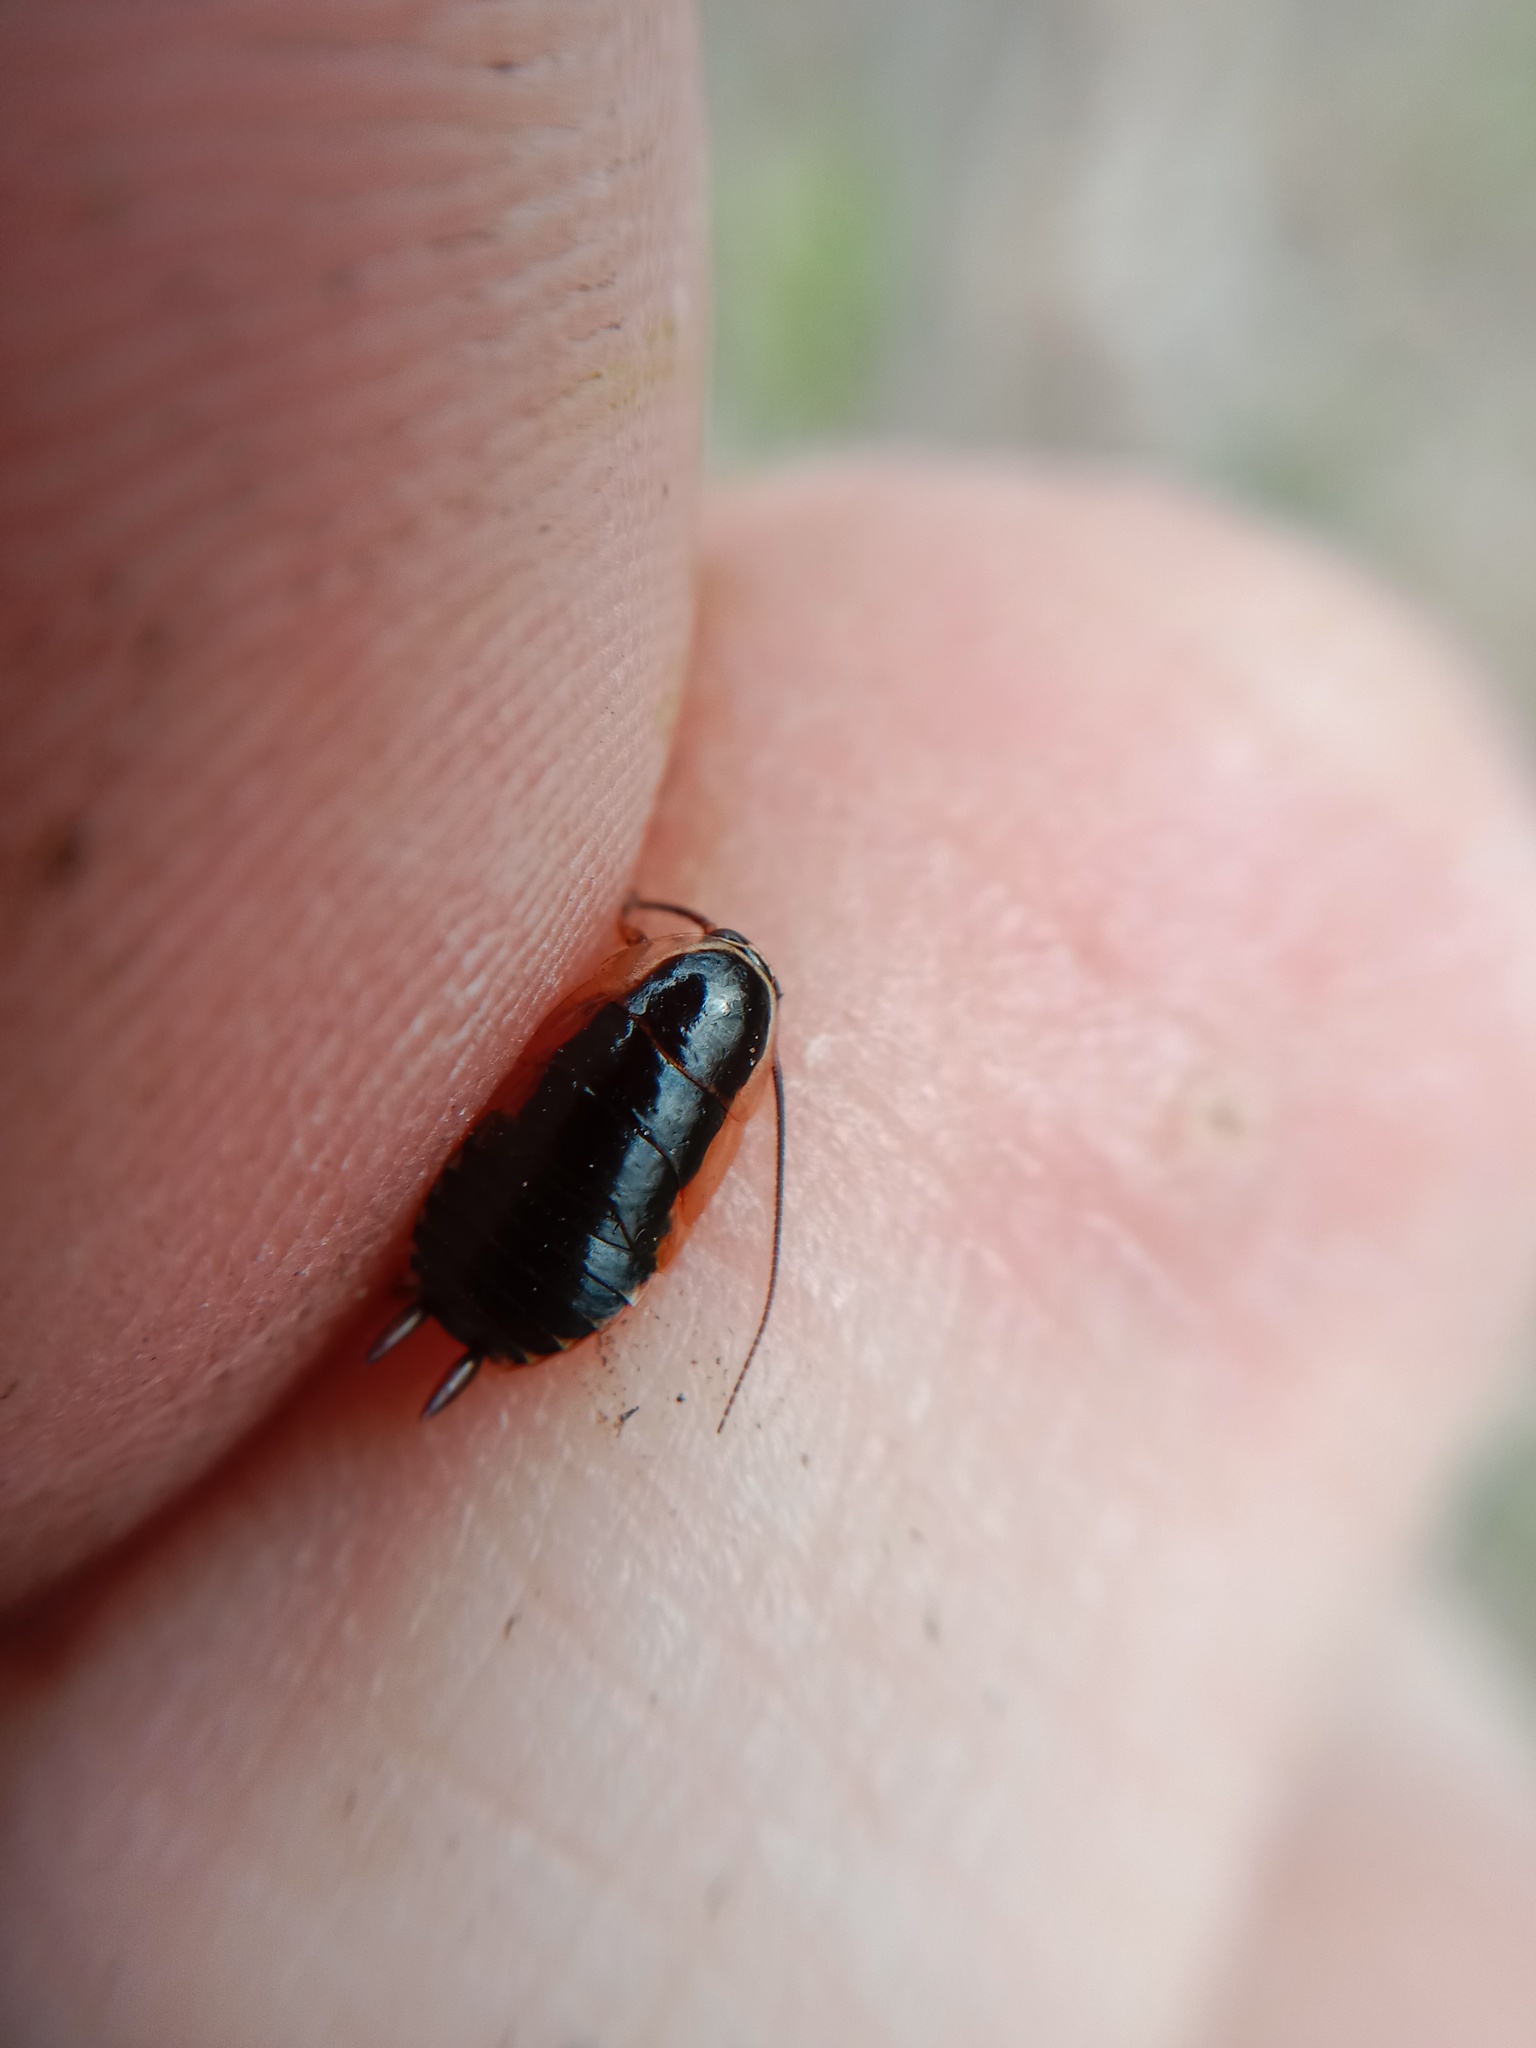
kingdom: Animalia
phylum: Arthropoda
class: Insecta
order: Blattodea
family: Ectobiidae
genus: Ectobius
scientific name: Ectobius sylvestris
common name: Forest cockroach
